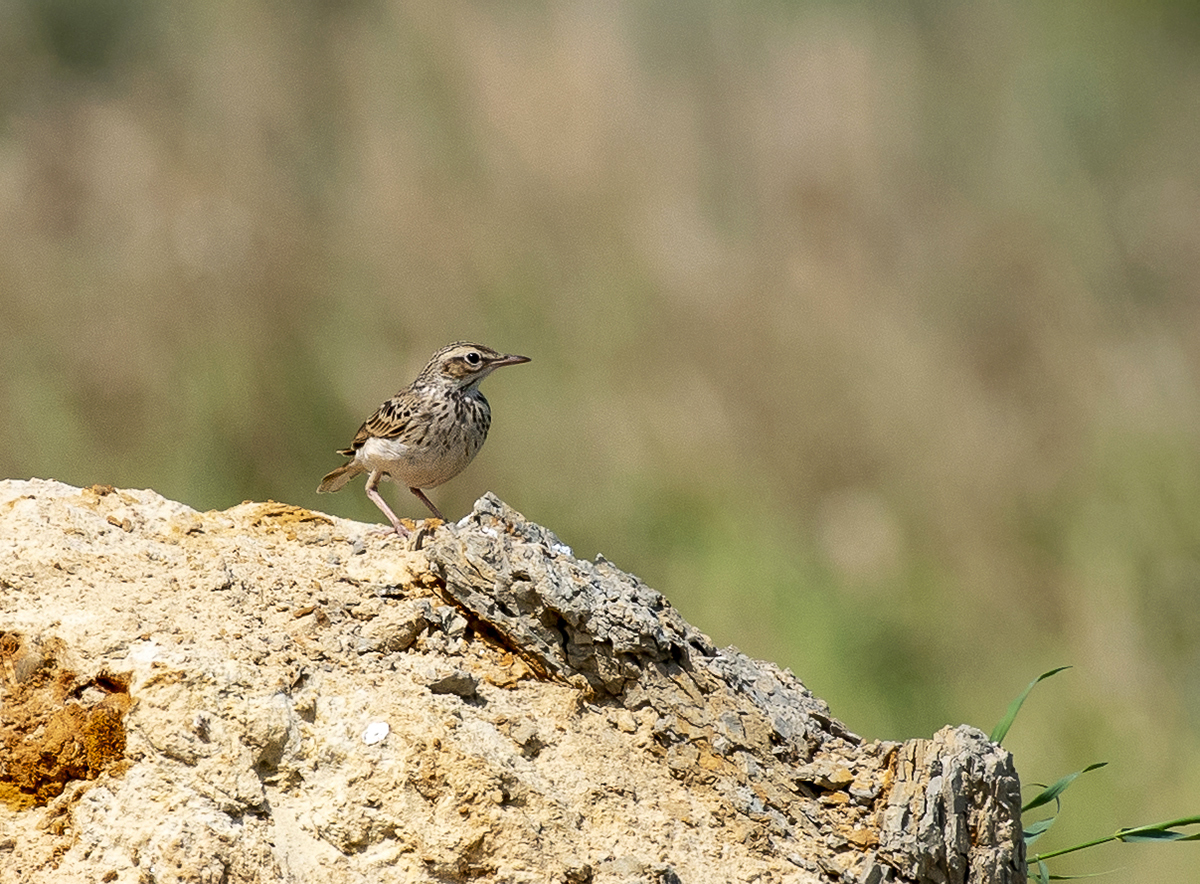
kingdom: Animalia
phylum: Chordata
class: Aves
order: Passeriformes
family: Motacillidae
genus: Anthus
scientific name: Anthus campestris
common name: Tawny pipit
